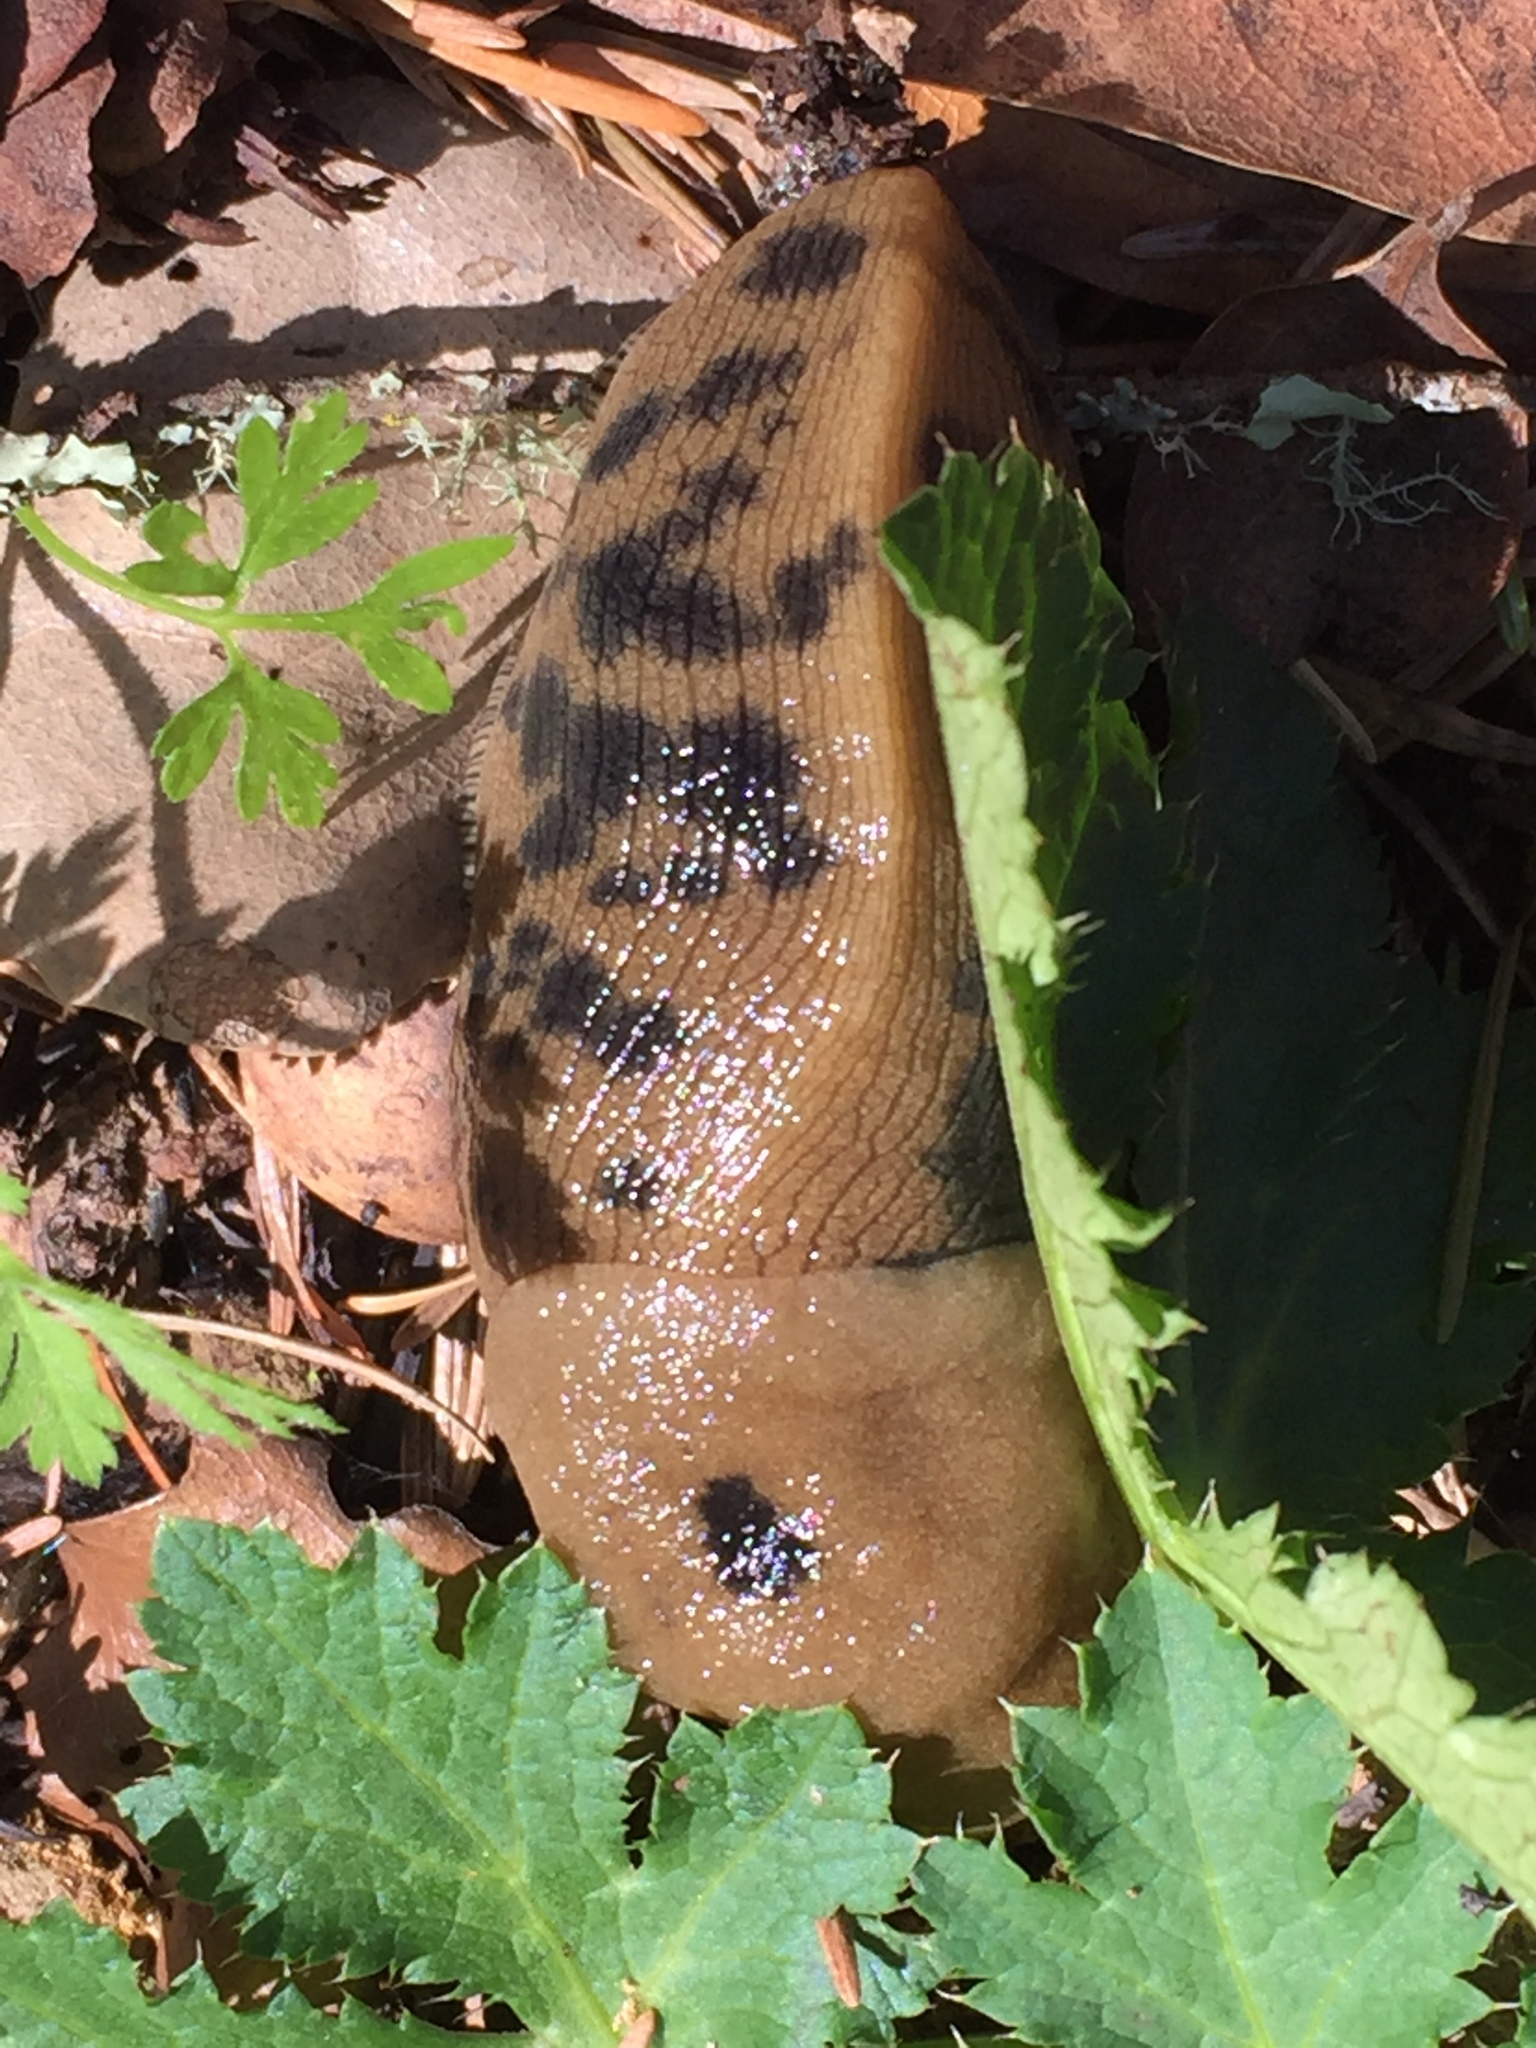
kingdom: Animalia
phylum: Mollusca
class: Gastropoda
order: Stylommatophora
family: Ariolimacidae
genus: Ariolimax
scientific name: Ariolimax buttoni
